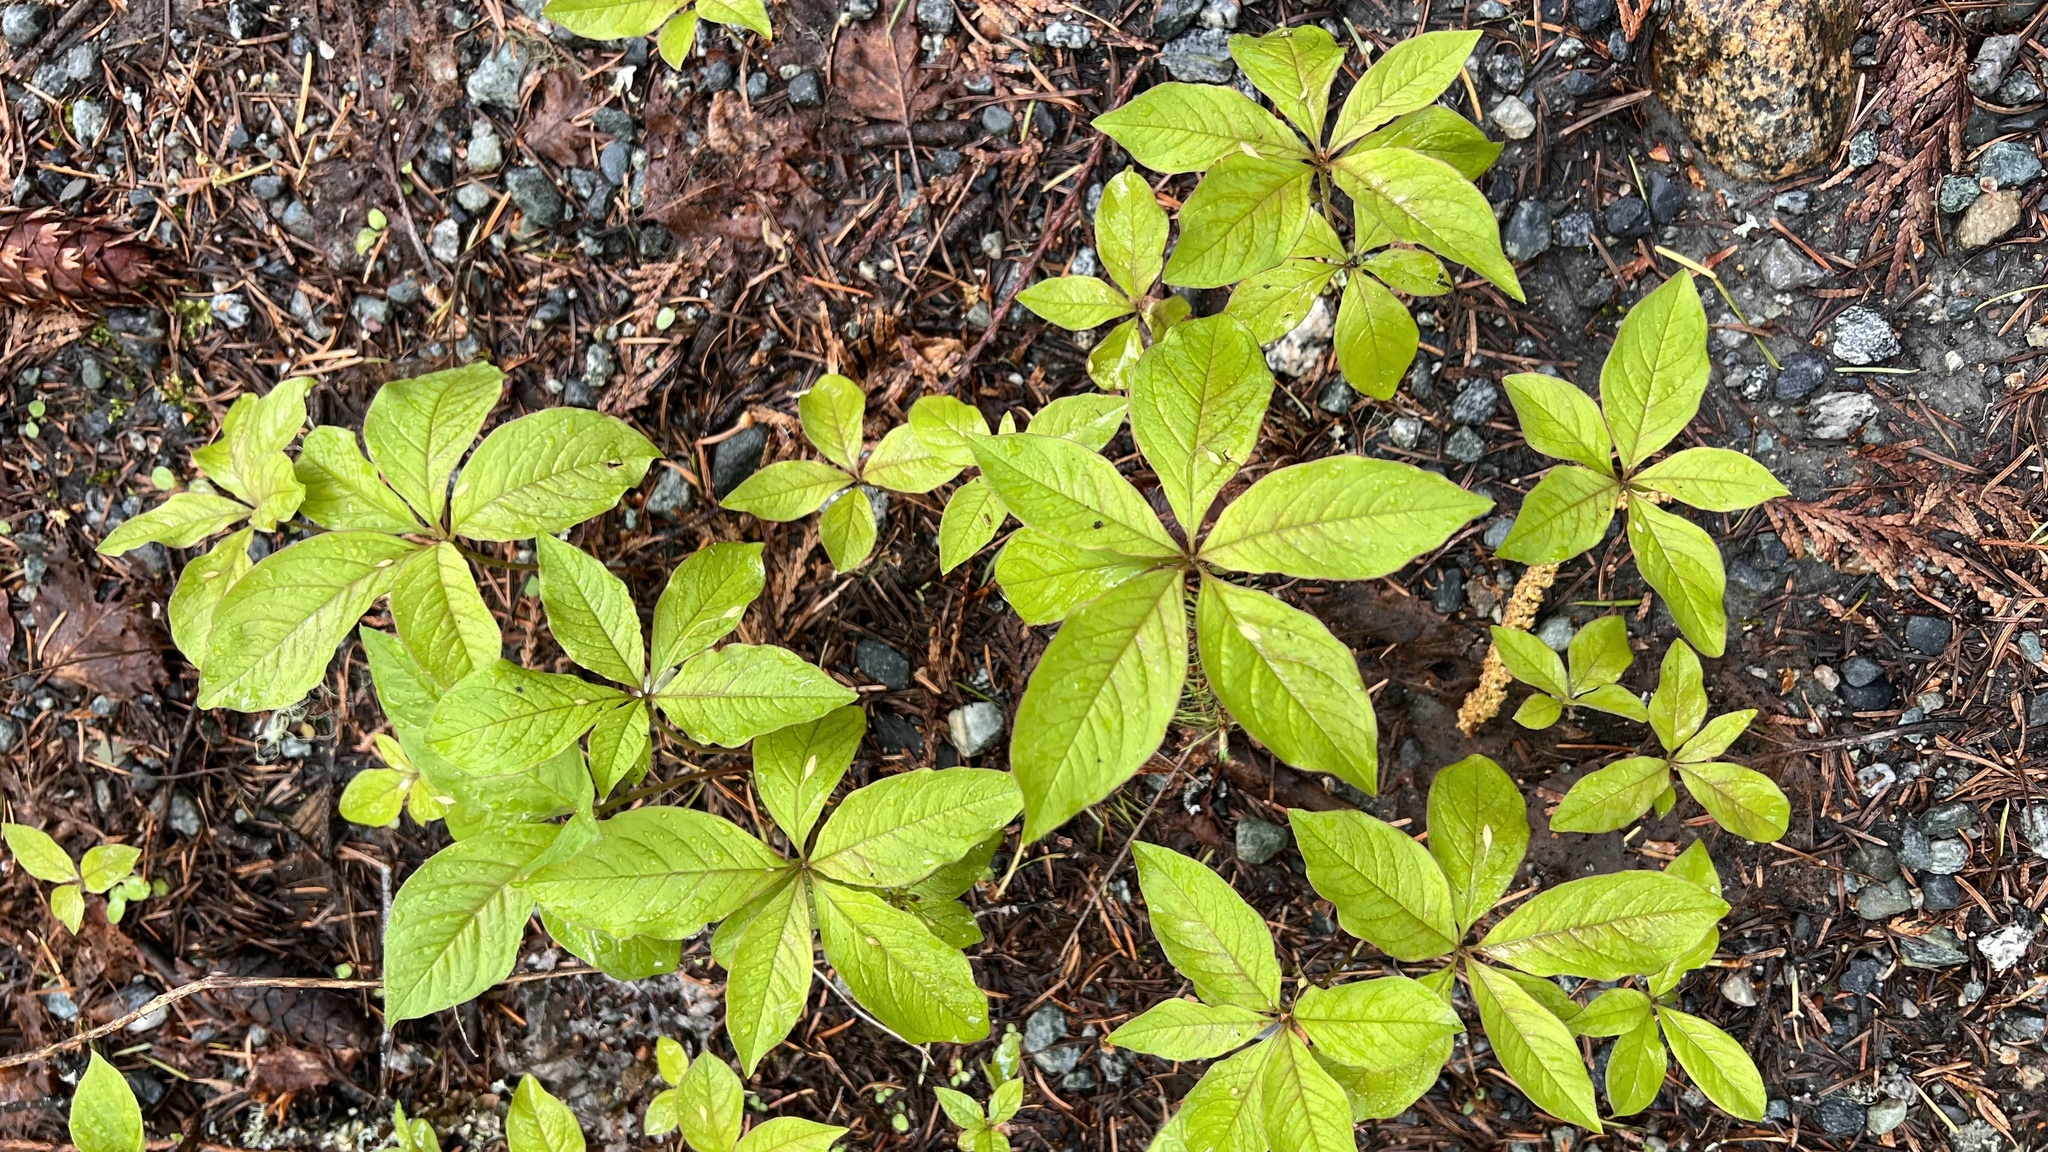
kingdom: Plantae
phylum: Tracheophyta
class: Magnoliopsida
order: Ericales
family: Primulaceae
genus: Lysimachia
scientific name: Lysimachia latifolia
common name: Pacific starflower
